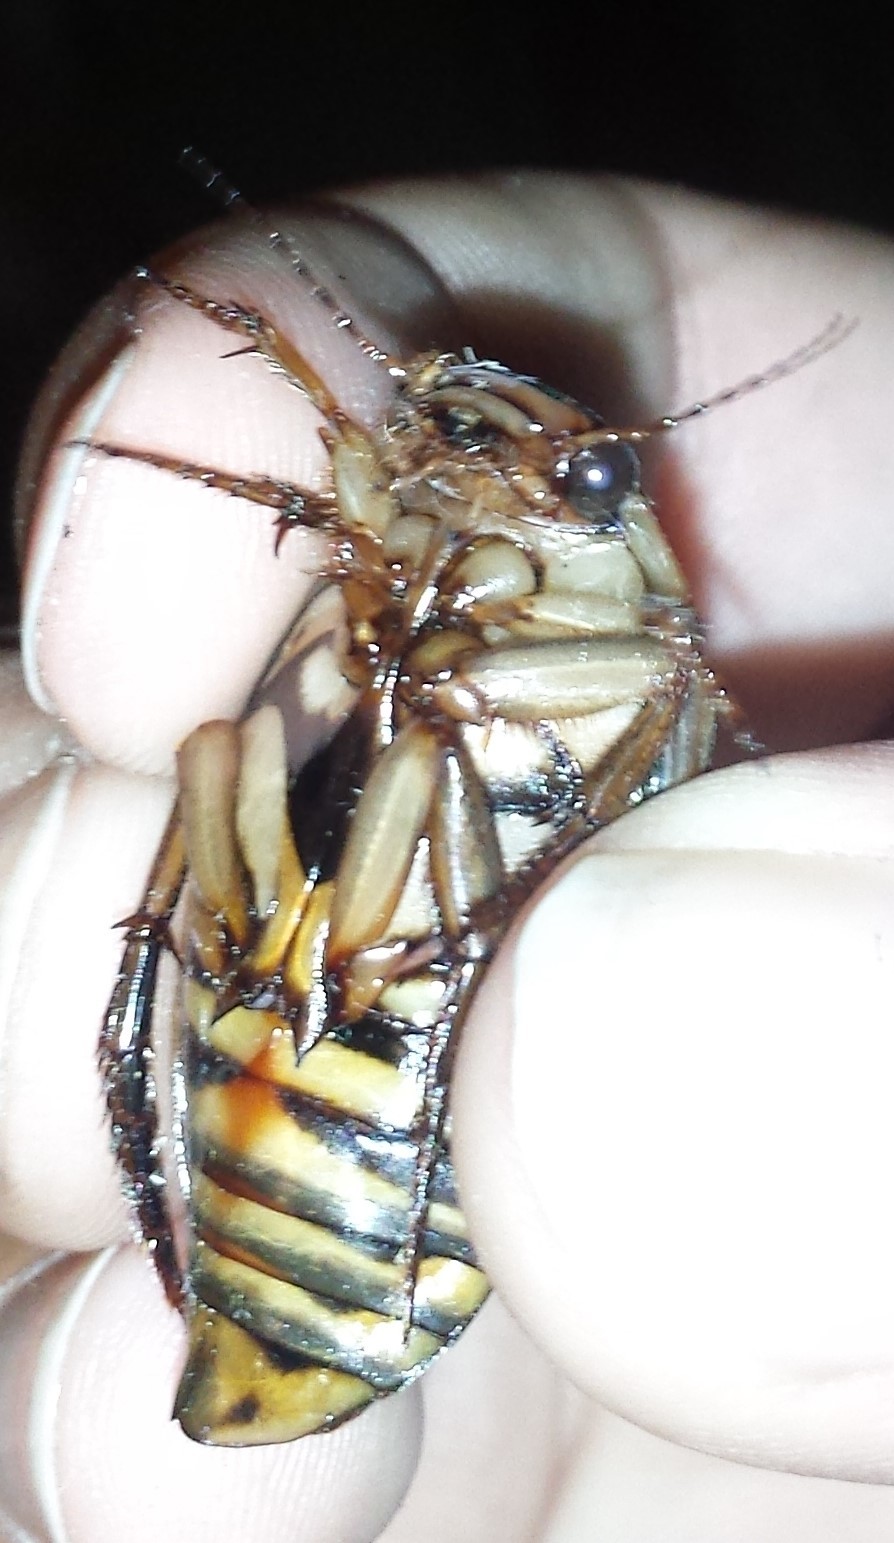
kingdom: Animalia
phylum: Arthropoda
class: Insecta
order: Coleoptera
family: Dytiscidae
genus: Dytiscus
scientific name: Dytiscus dauricus
